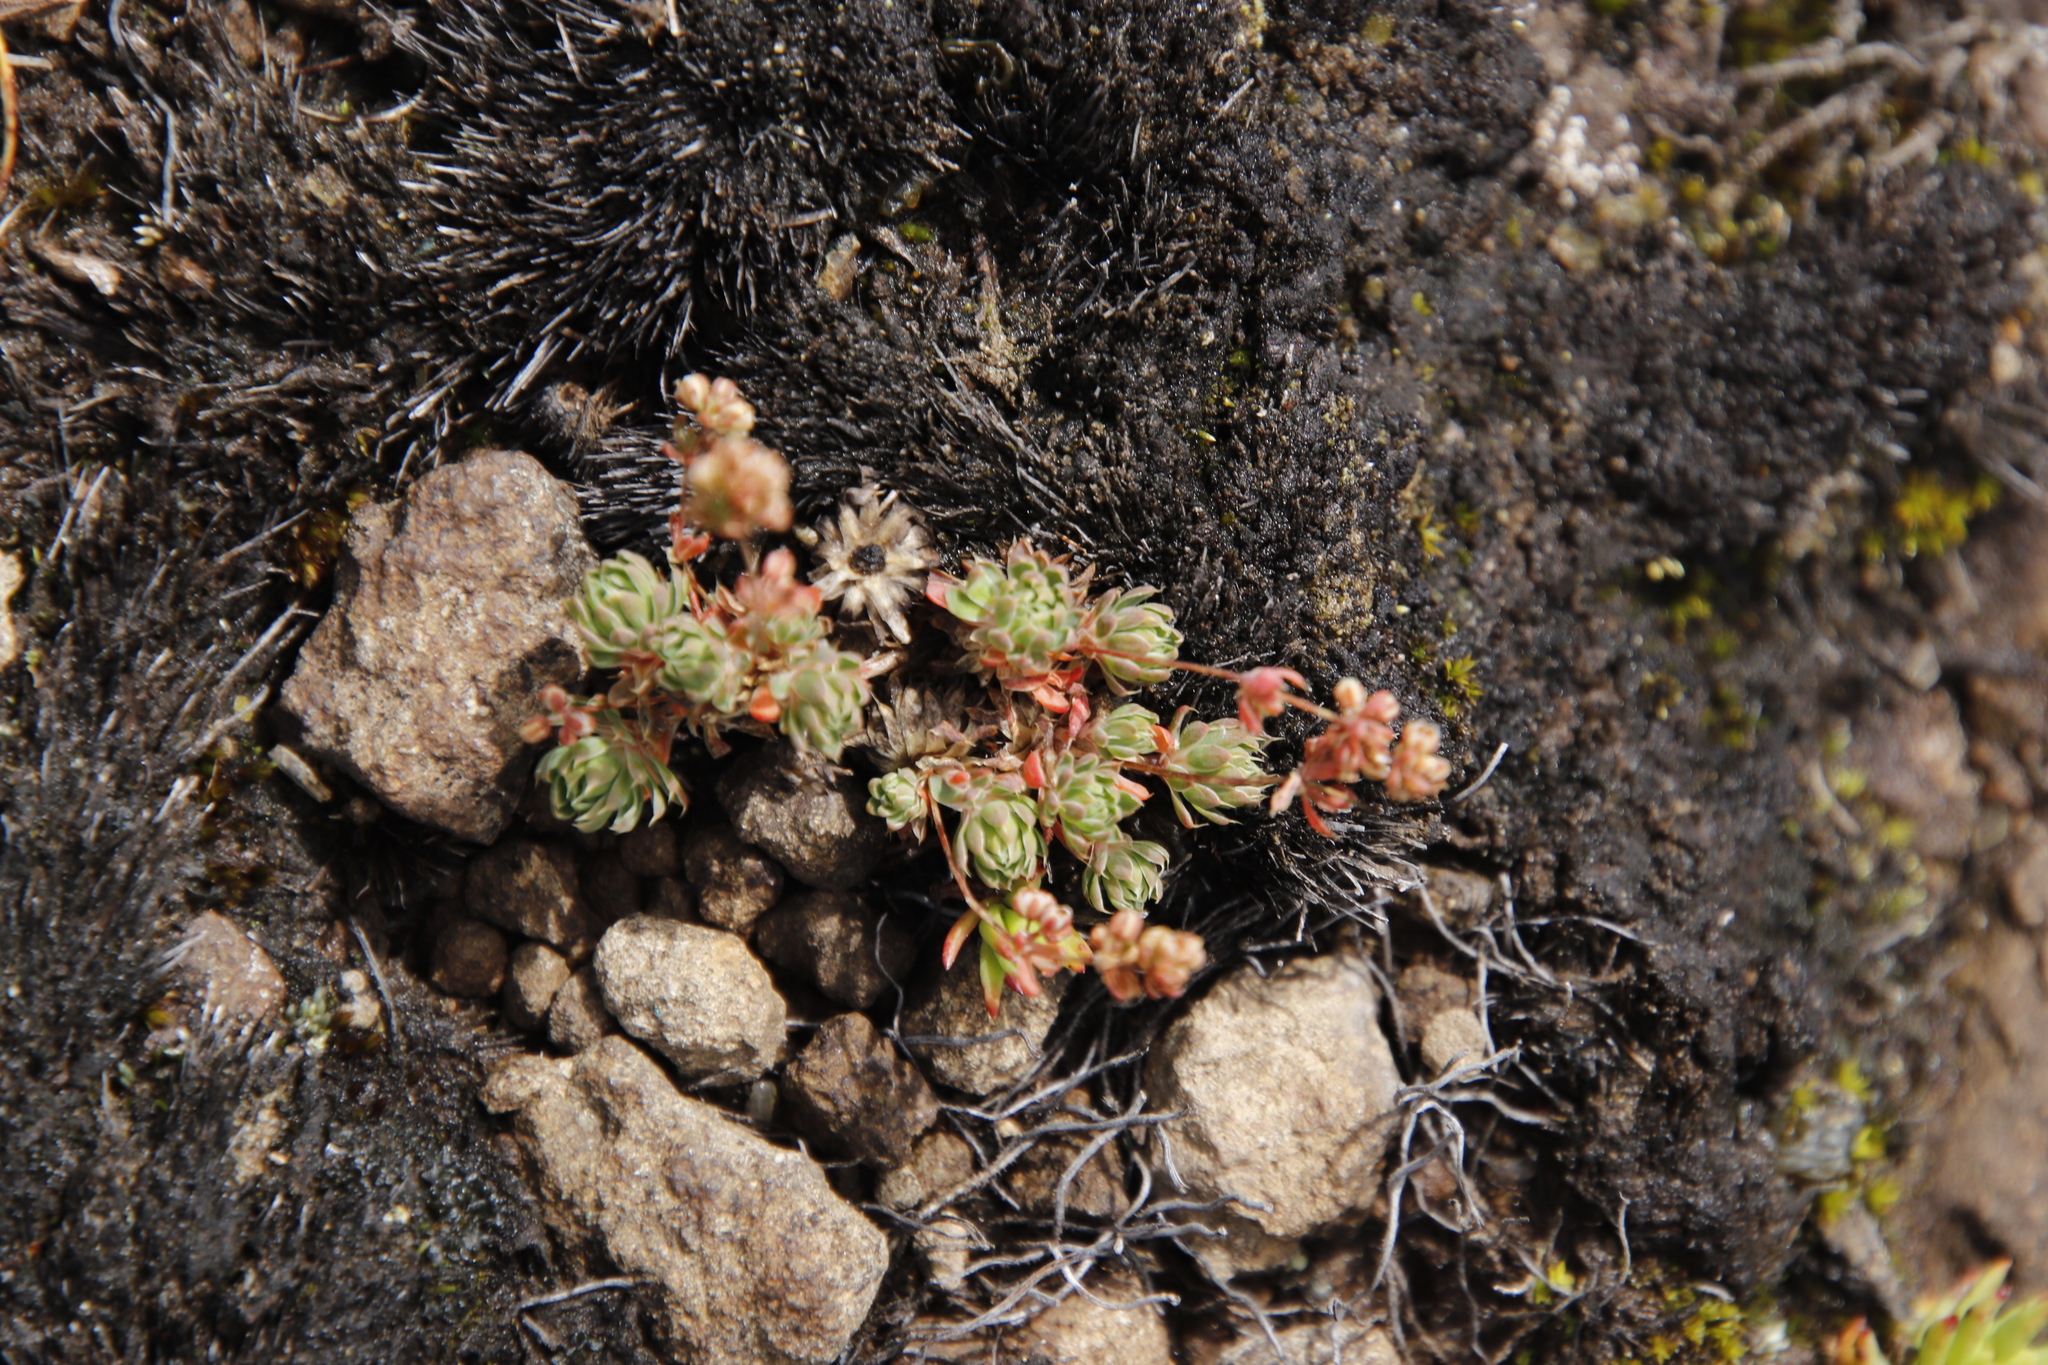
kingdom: Plantae
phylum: Tracheophyta
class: Magnoliopsida
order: Caryophyllales
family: Molluginaceae
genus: Psammotropha
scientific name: Psammotropha mucronata
